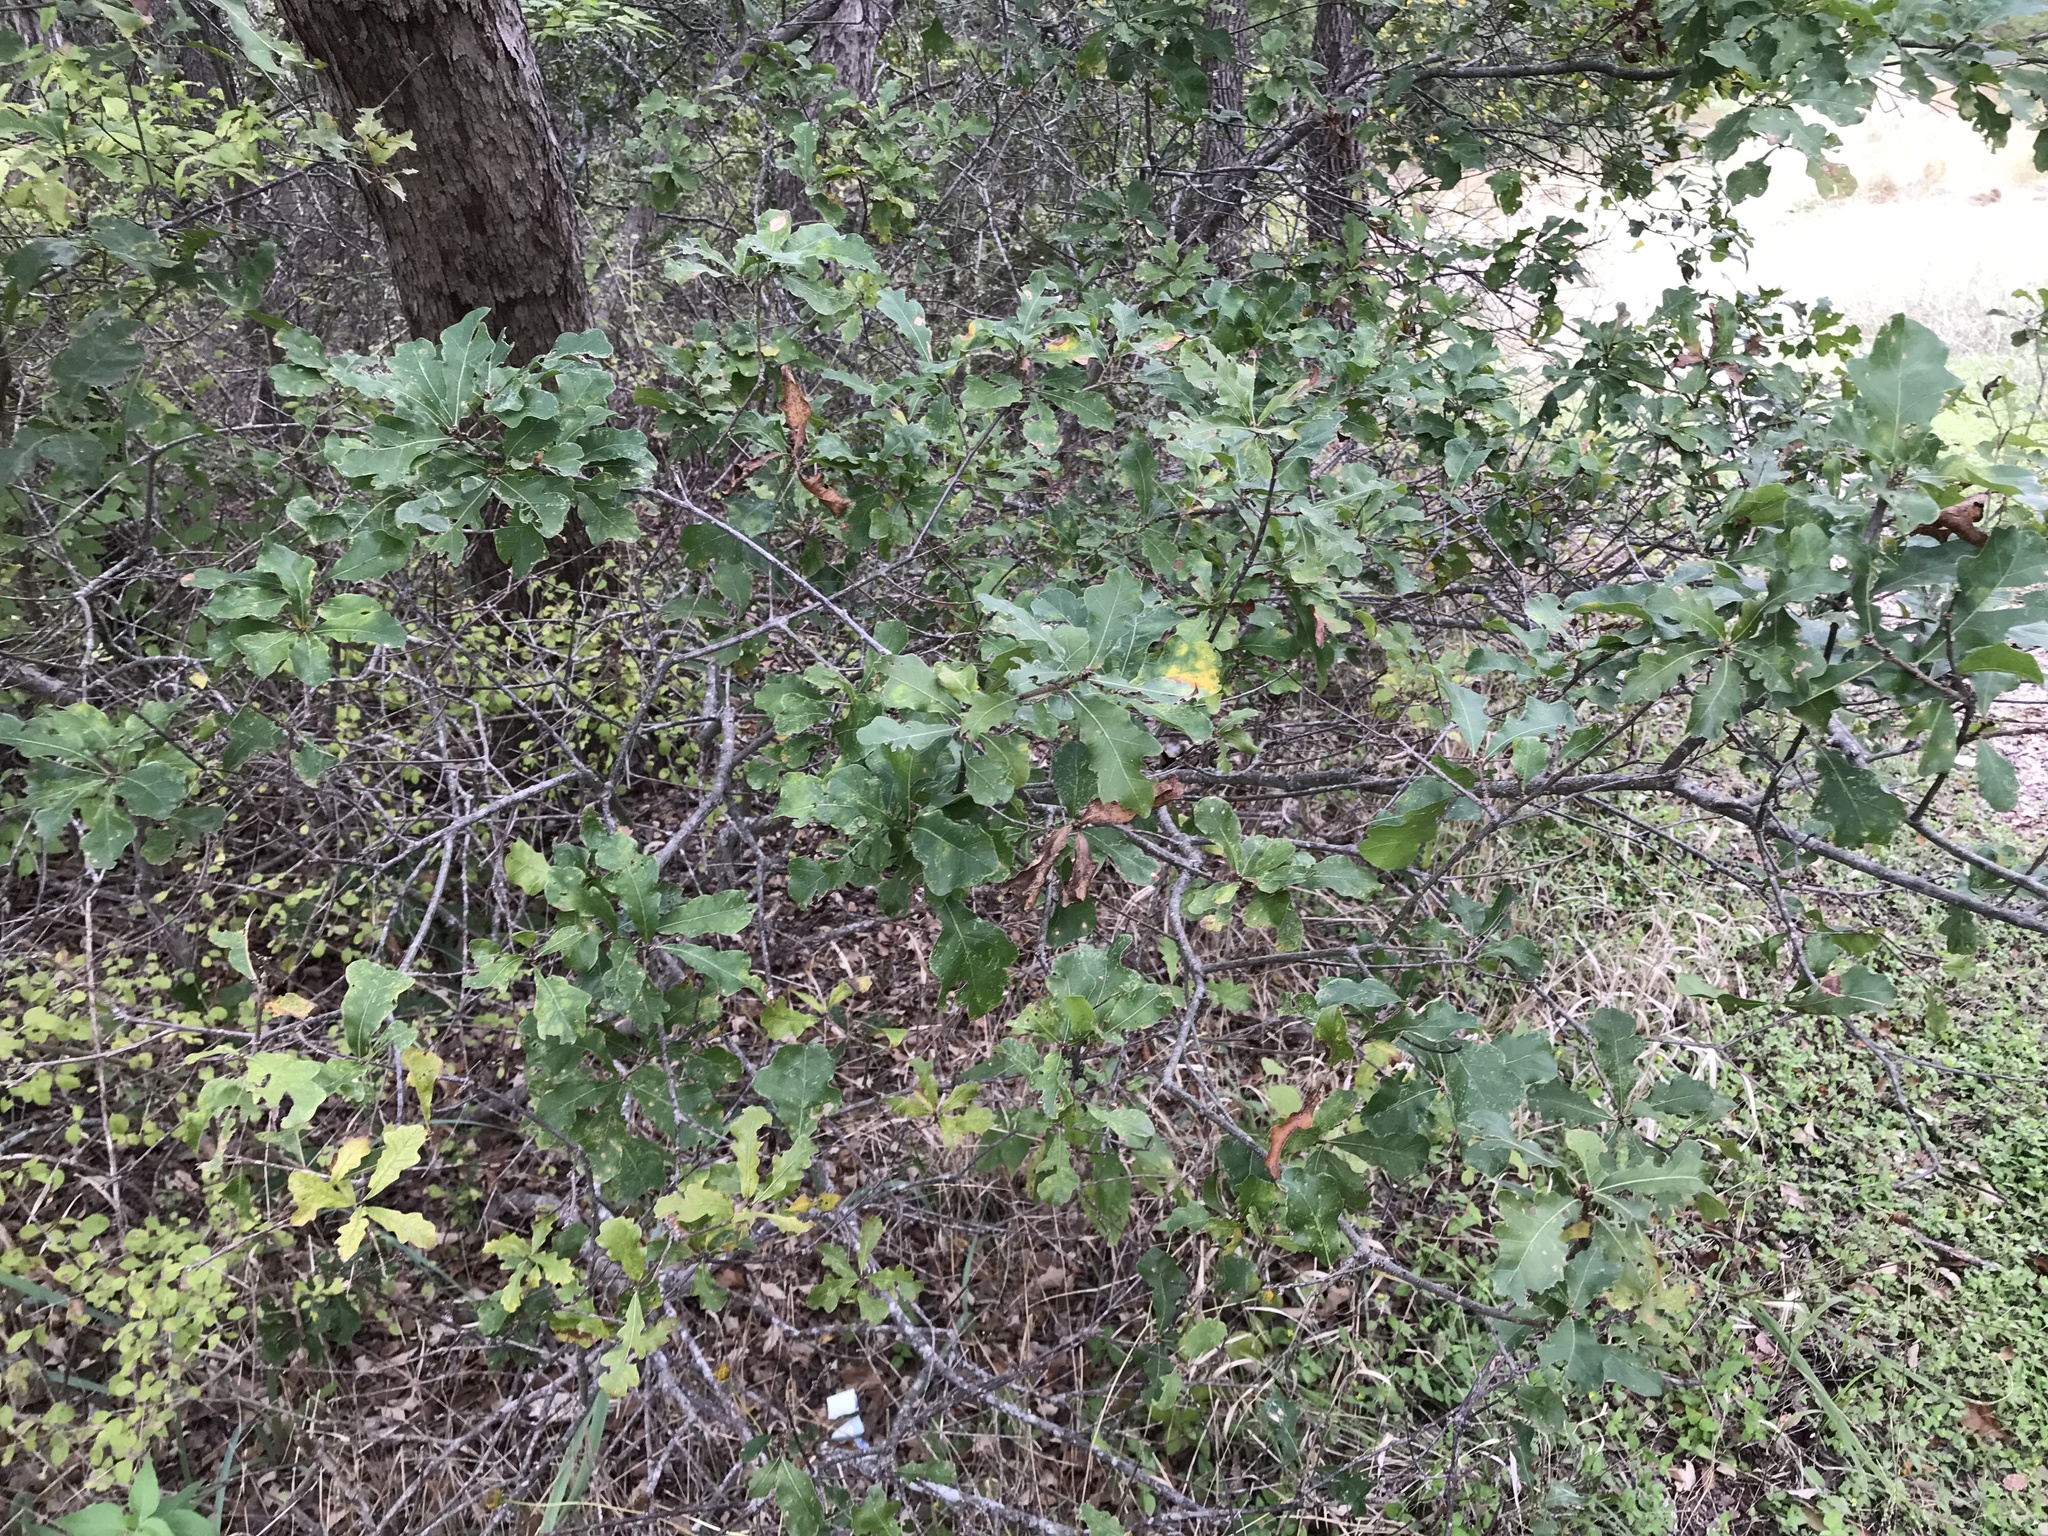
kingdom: Plantae
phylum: Tracheophyta
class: Magnoliopsida
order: Fagales
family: Fagaceae
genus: Quercus
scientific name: Quercus sinuata
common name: Durand oak
